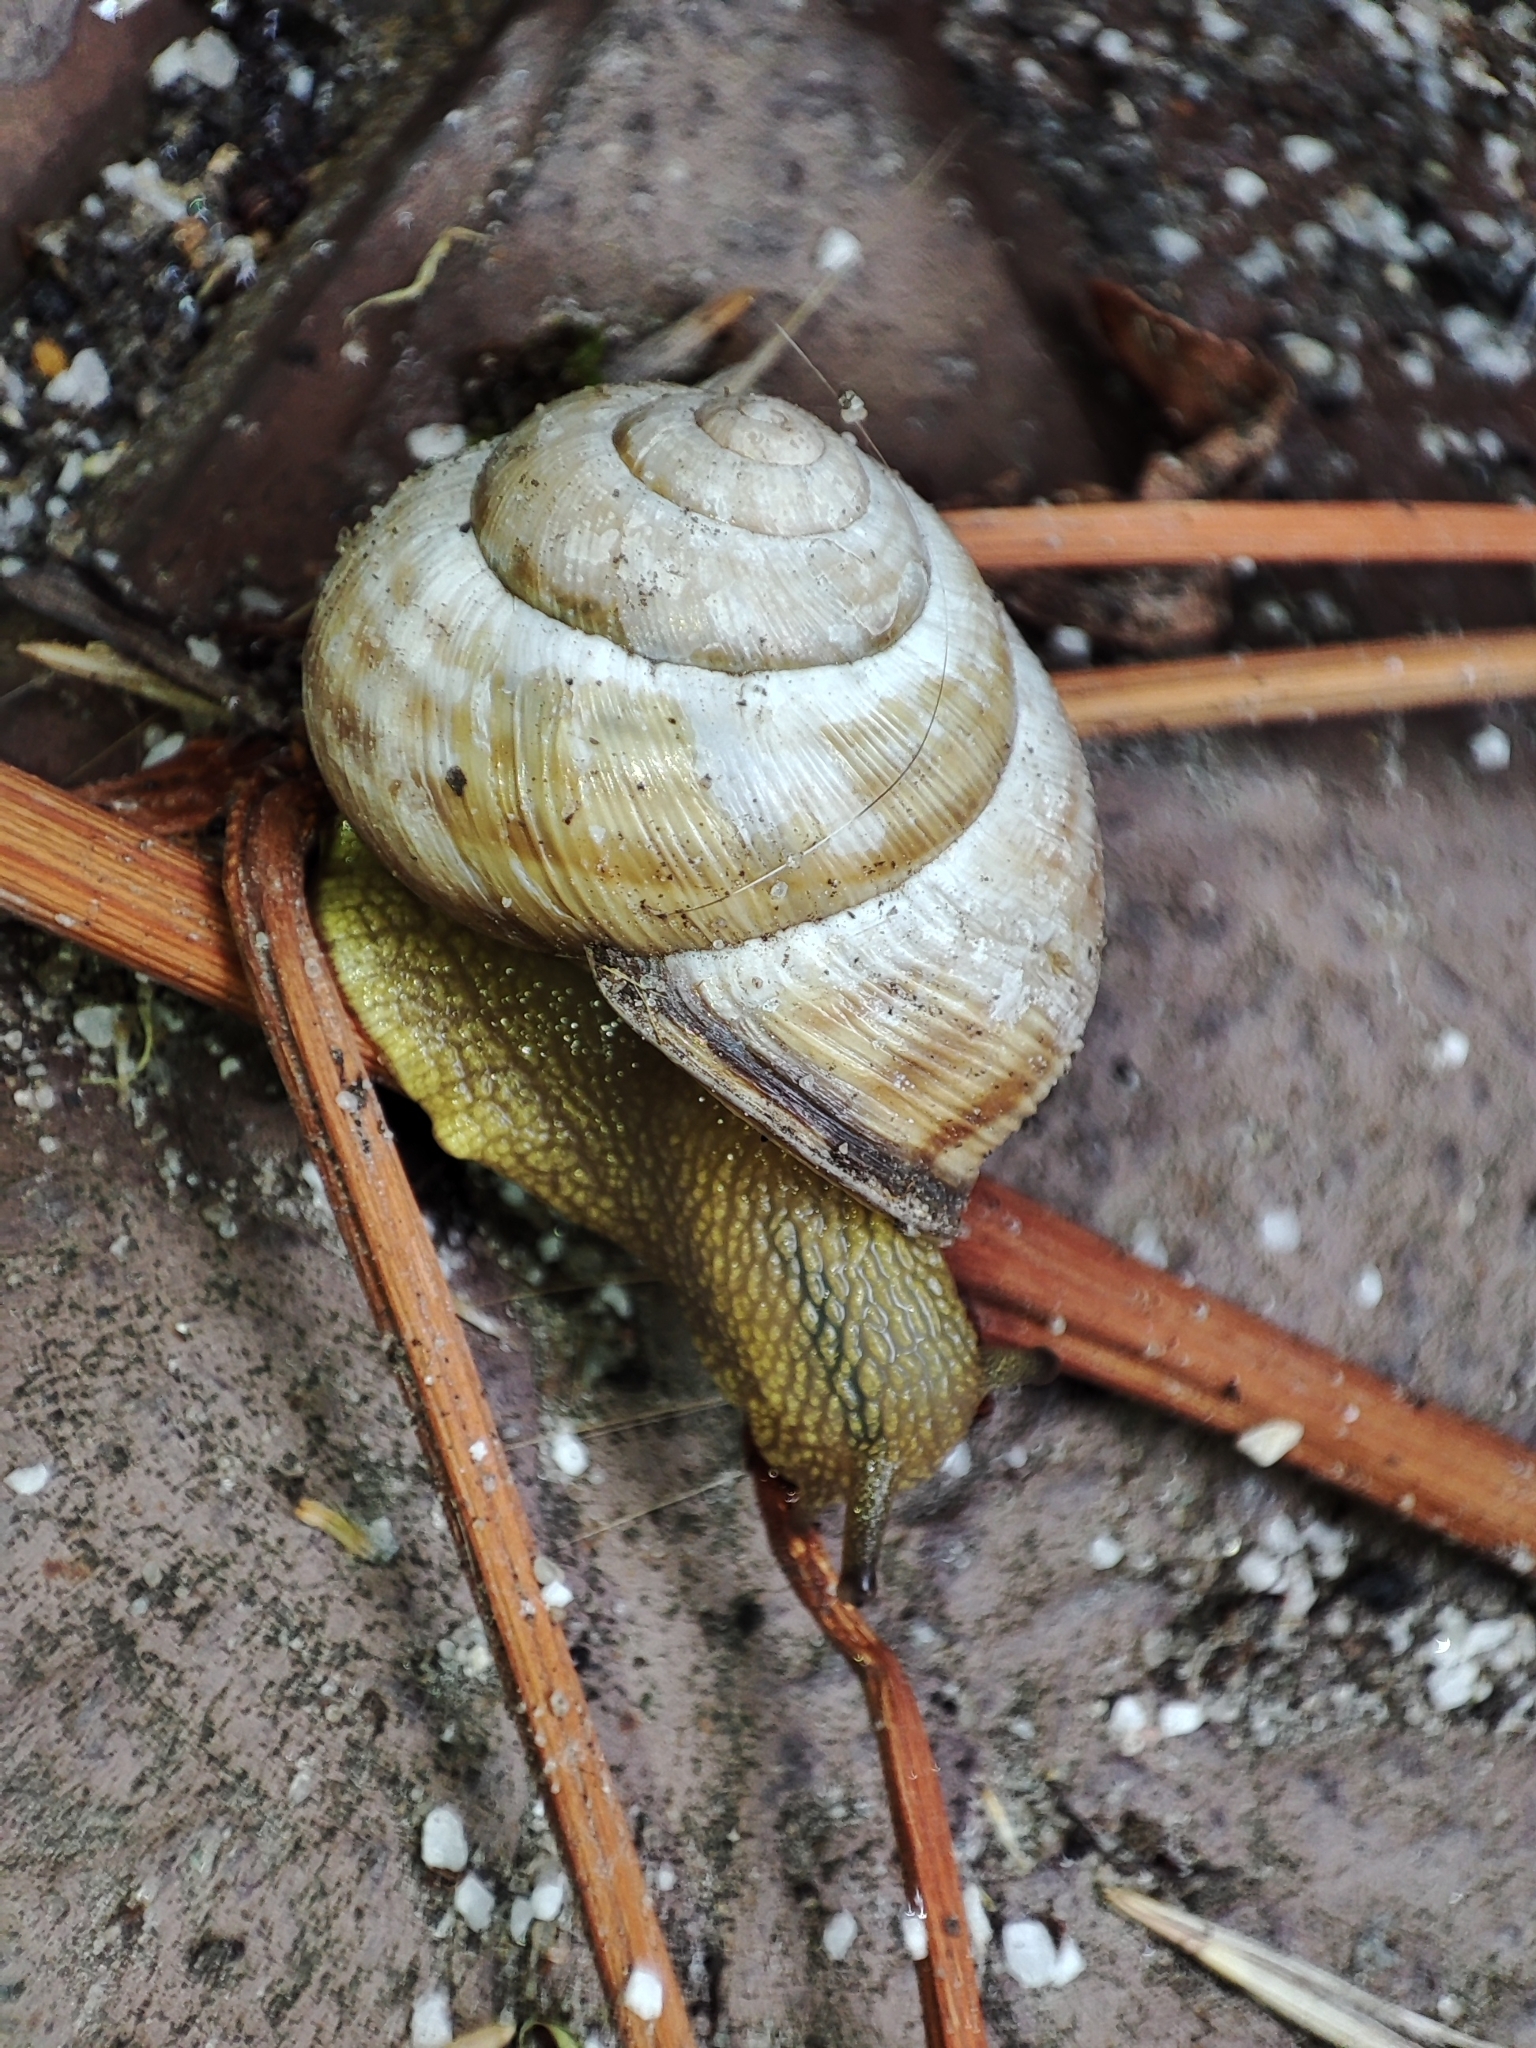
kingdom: Animalia
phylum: Mollusca
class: Gastropoda
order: Stylommatophora
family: Helicidae
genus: Caucasotachea
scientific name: Caucasotachea vindobonensis
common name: European helicid land snail
